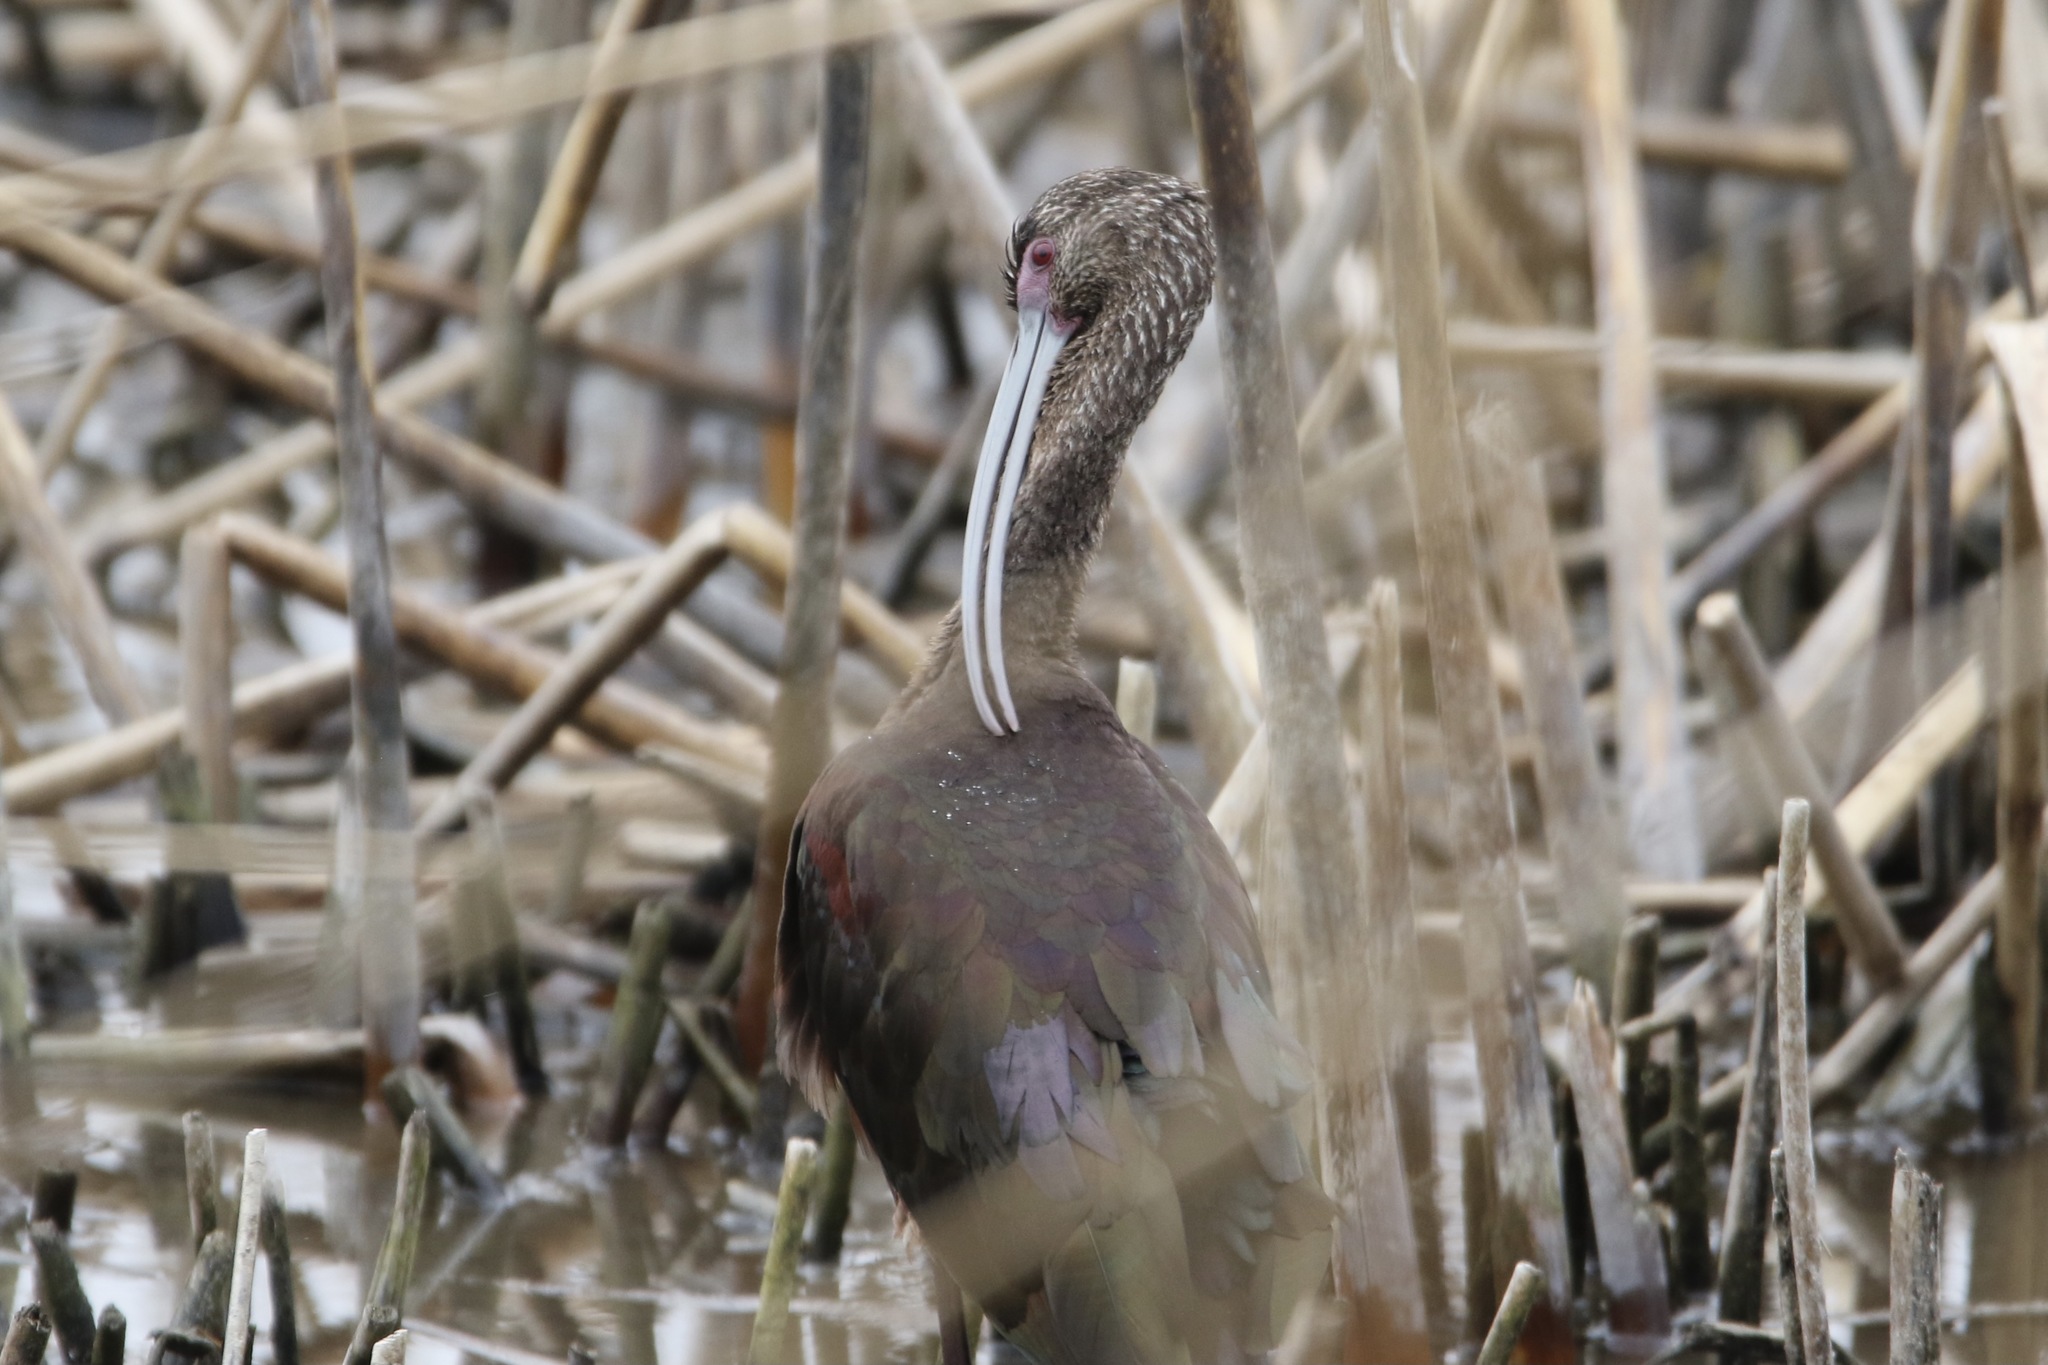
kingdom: Animalia
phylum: Chordata
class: Aves
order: Pelecaniformes
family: Threskiornithidae
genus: Plegadis
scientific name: Plegadis chihi
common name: White-faced ibis
